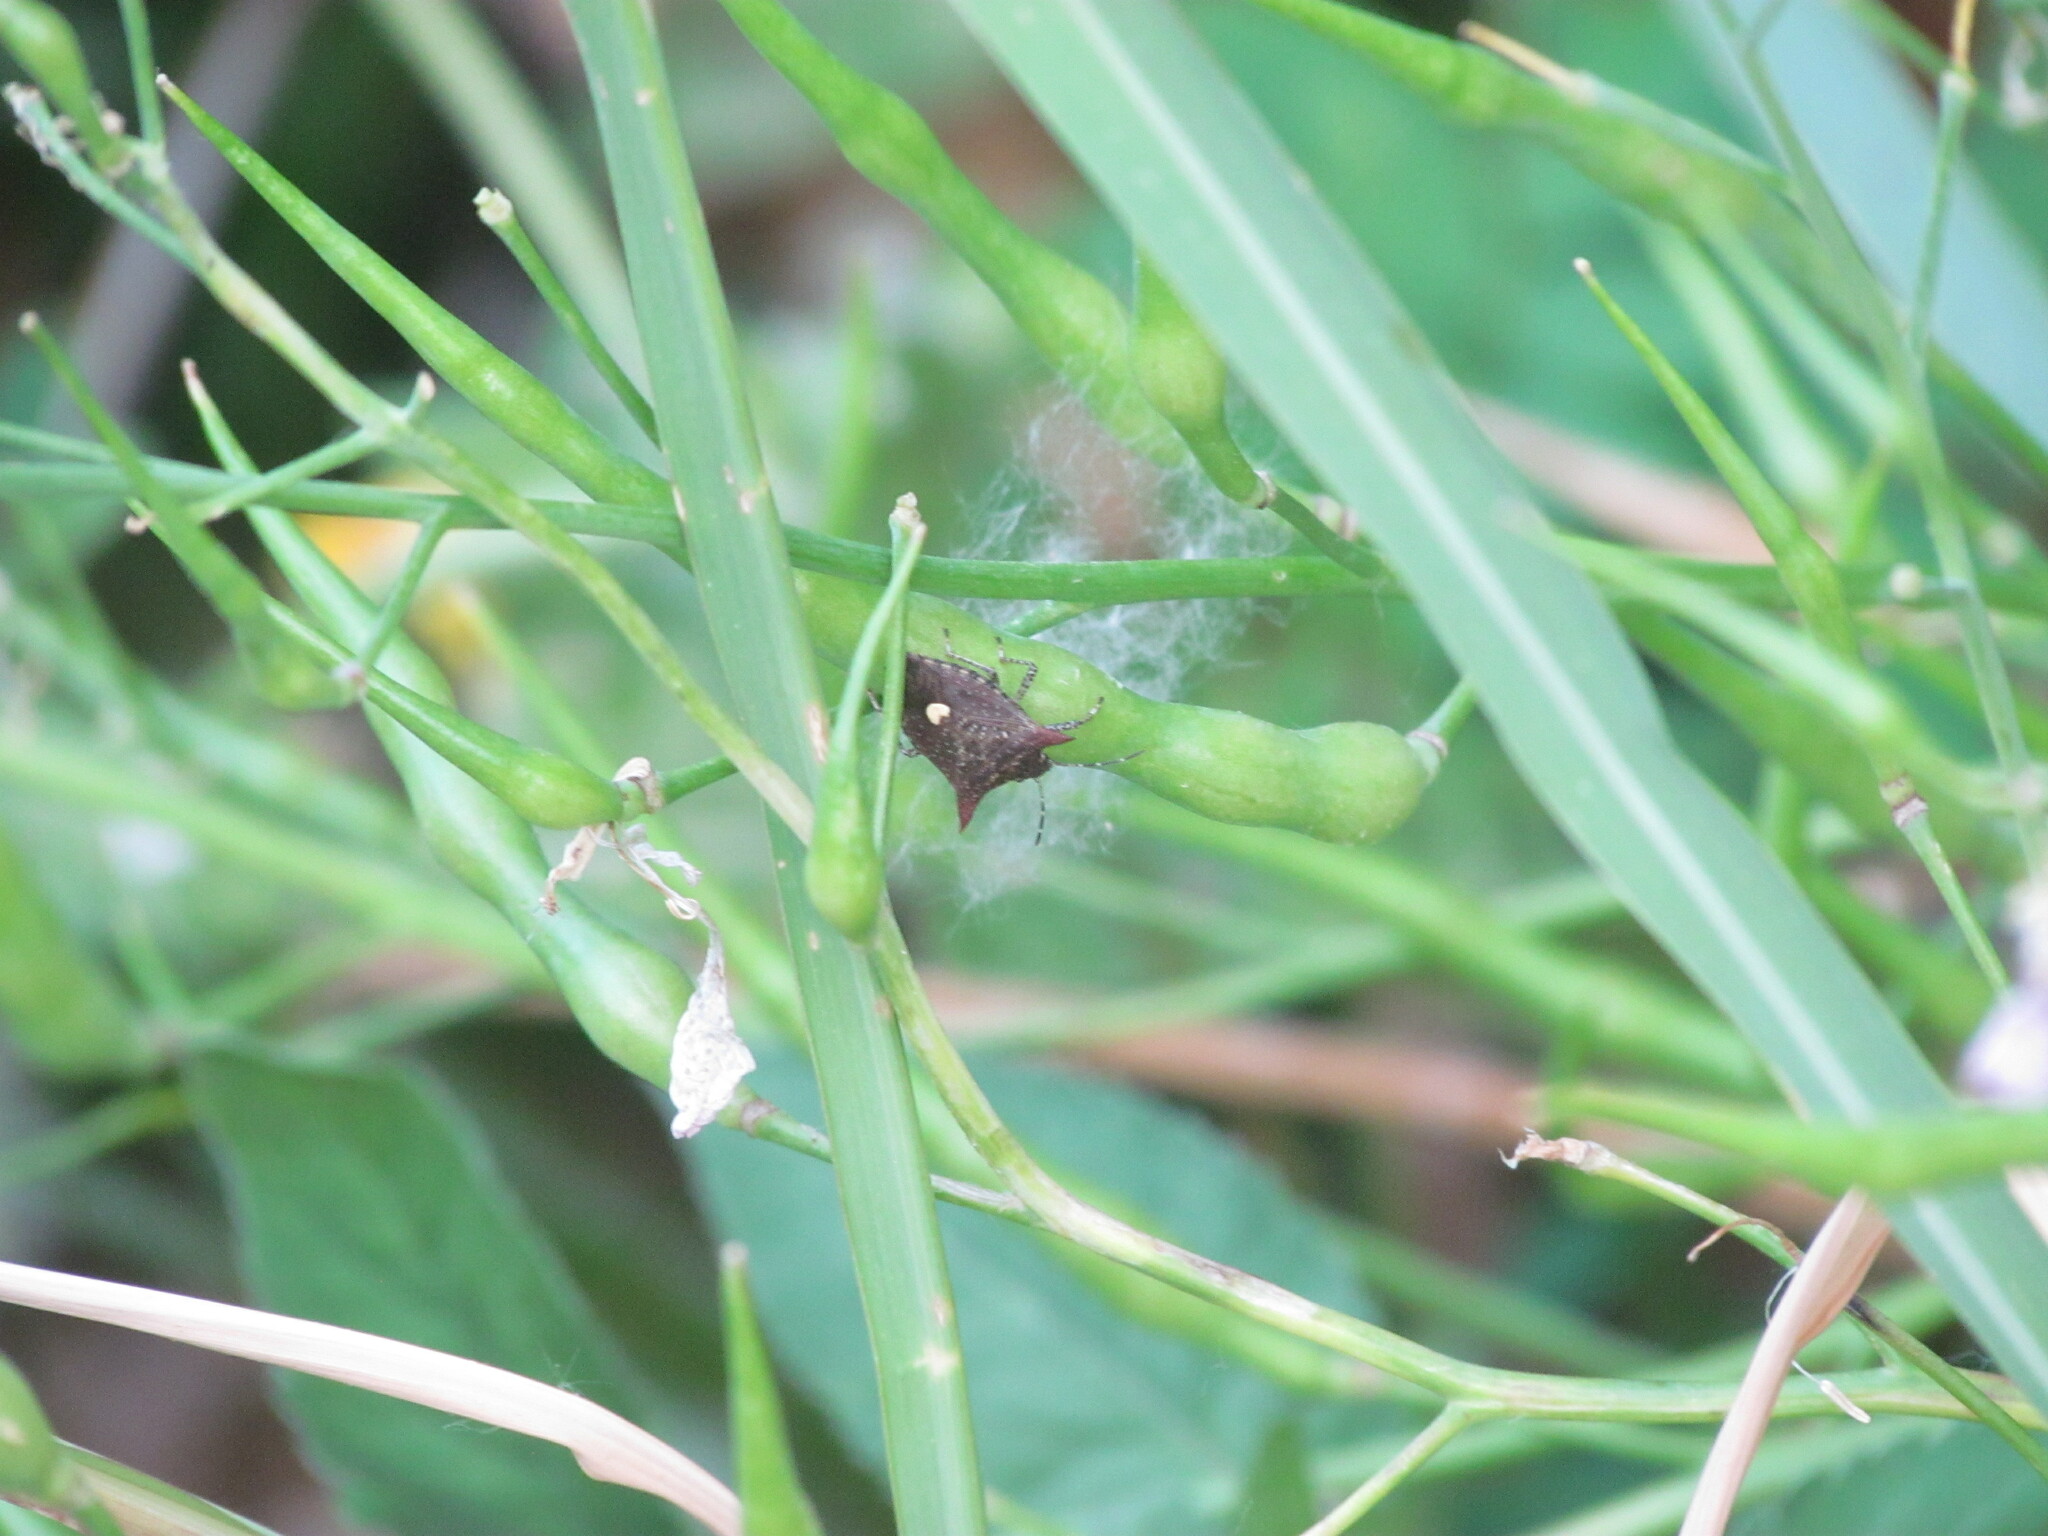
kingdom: Animalia
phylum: Arthropoda
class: Insecta
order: Hemiptera
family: Pentatomidae
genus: Euschistus
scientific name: Euschistus picticornis
